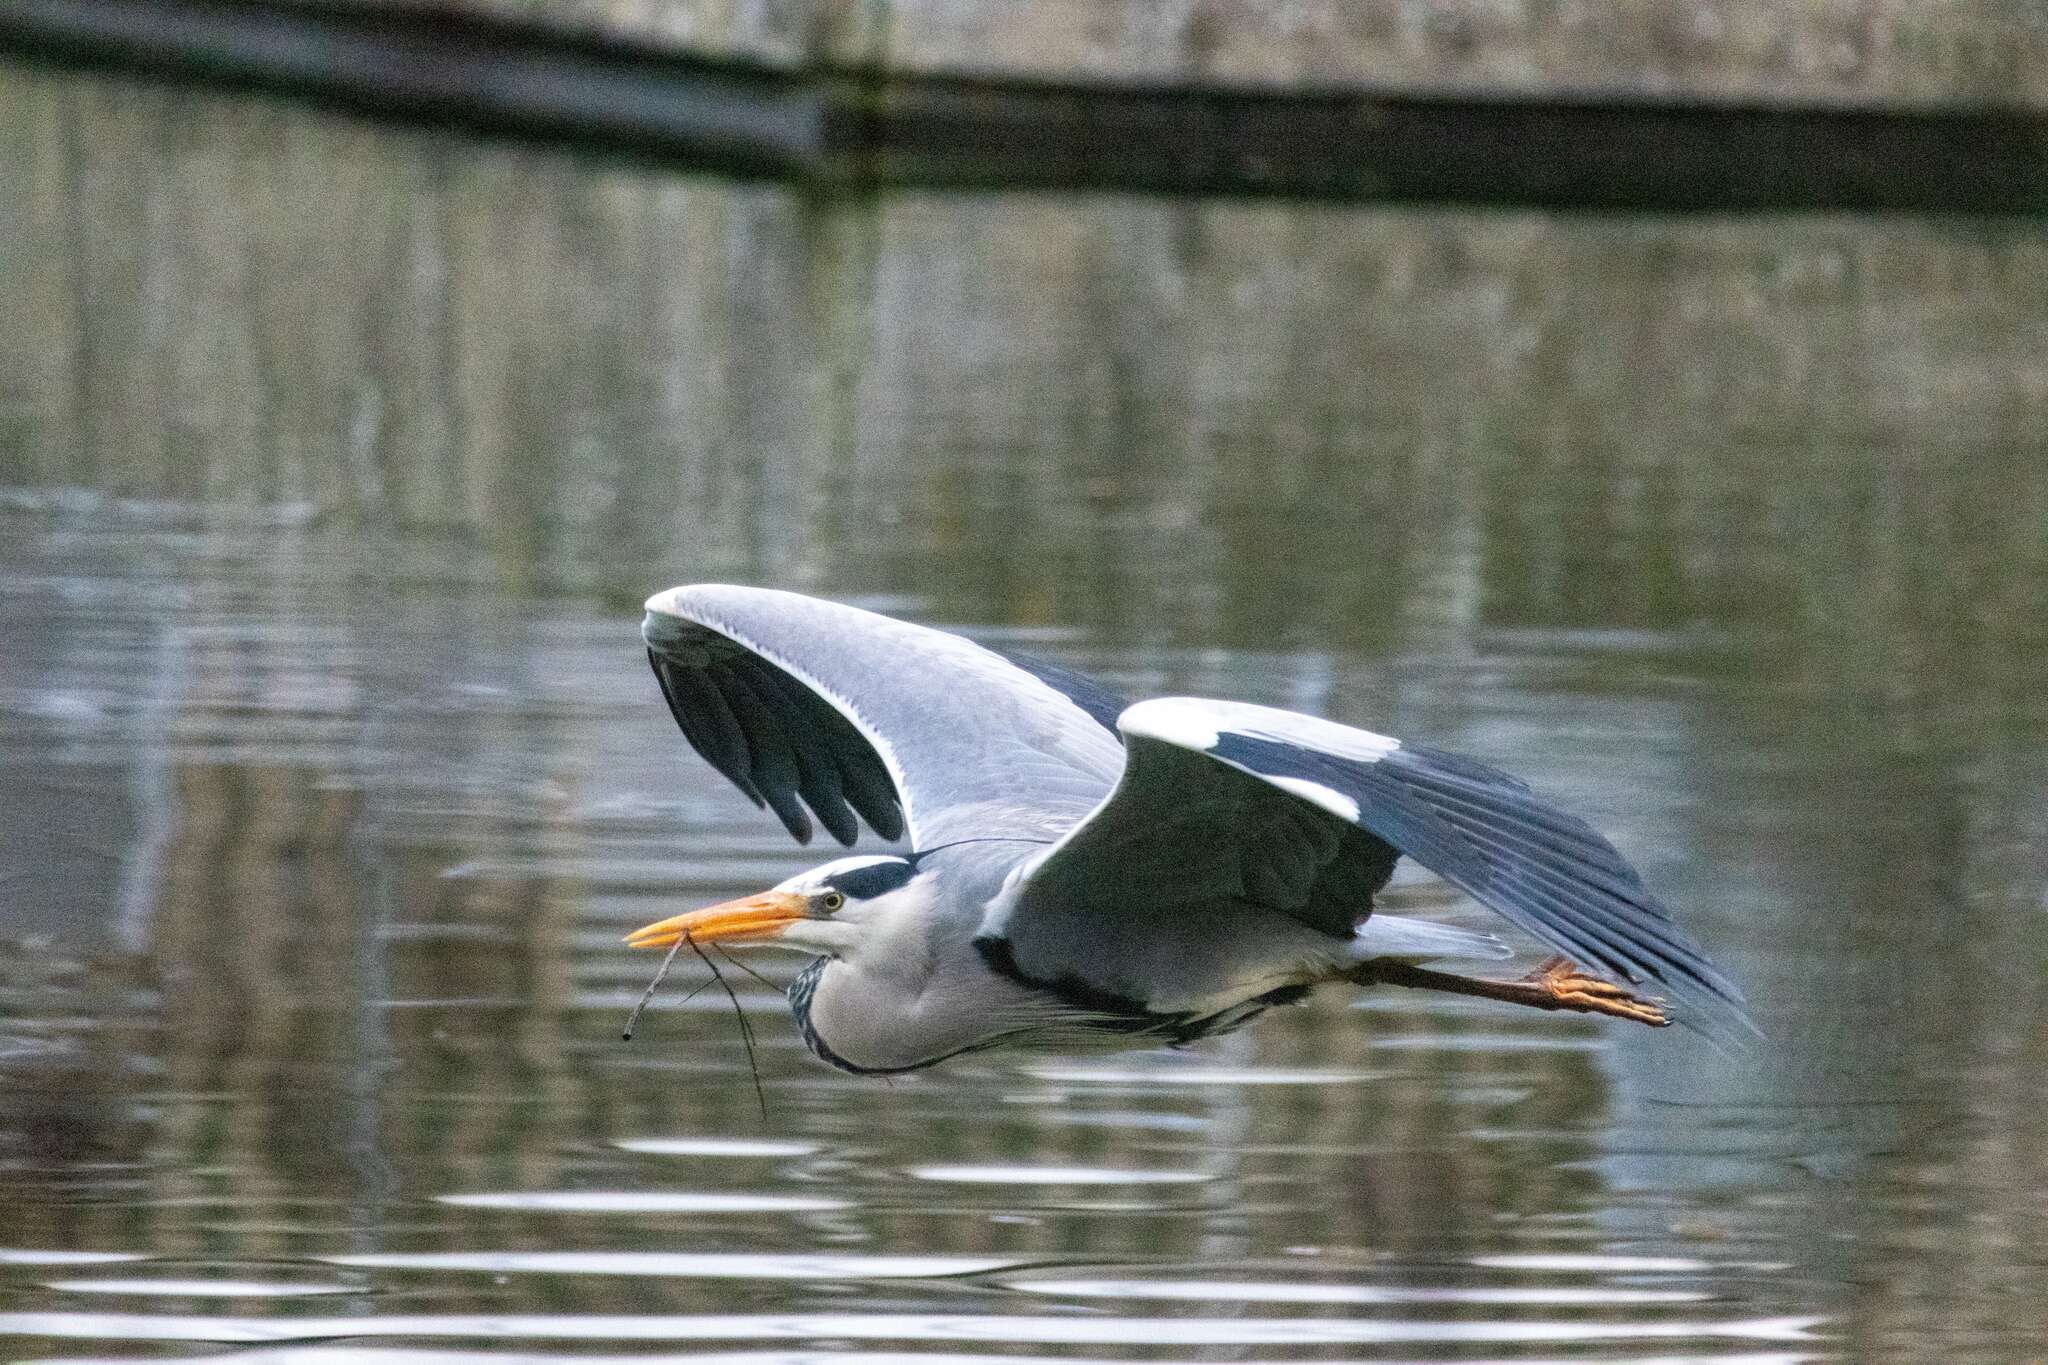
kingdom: Animalia
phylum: Chordata
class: Aves
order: Pelecaniformes
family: Ardeidae
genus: Ardea
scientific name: Ardea cinerea
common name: Grey heron
